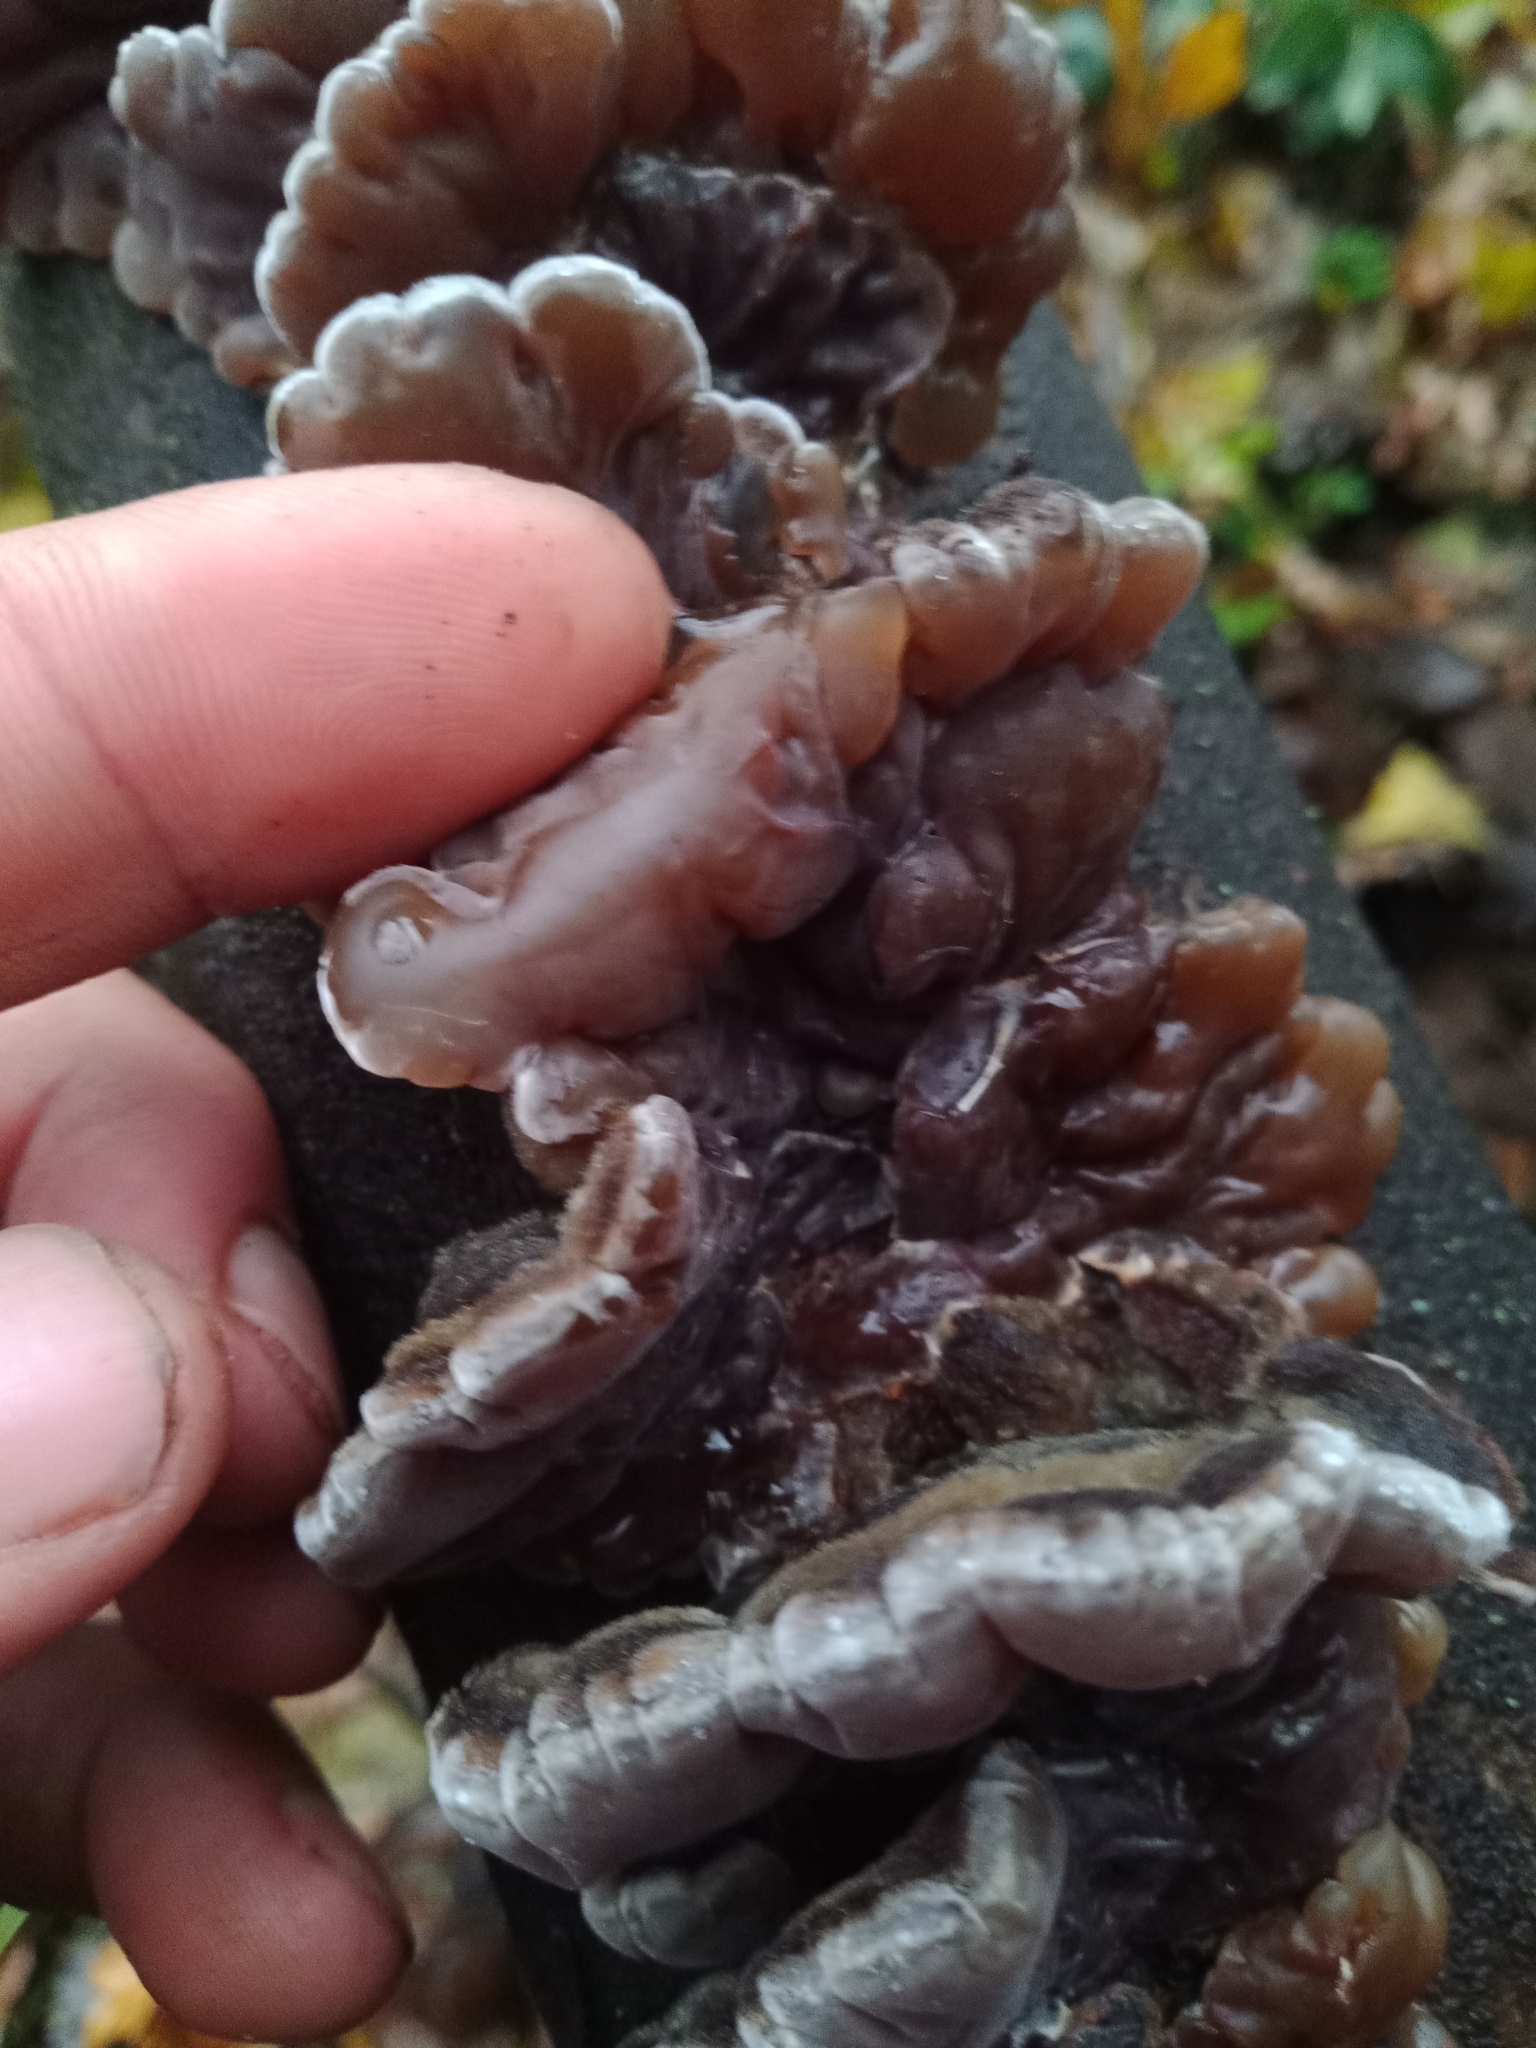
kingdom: Fungi
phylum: Basidiomycota
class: Agaricomycetes
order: Auriculariales
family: Auriculariaceae
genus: Auricularia
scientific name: Auricularia mesenterica
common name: Tripe fungus
